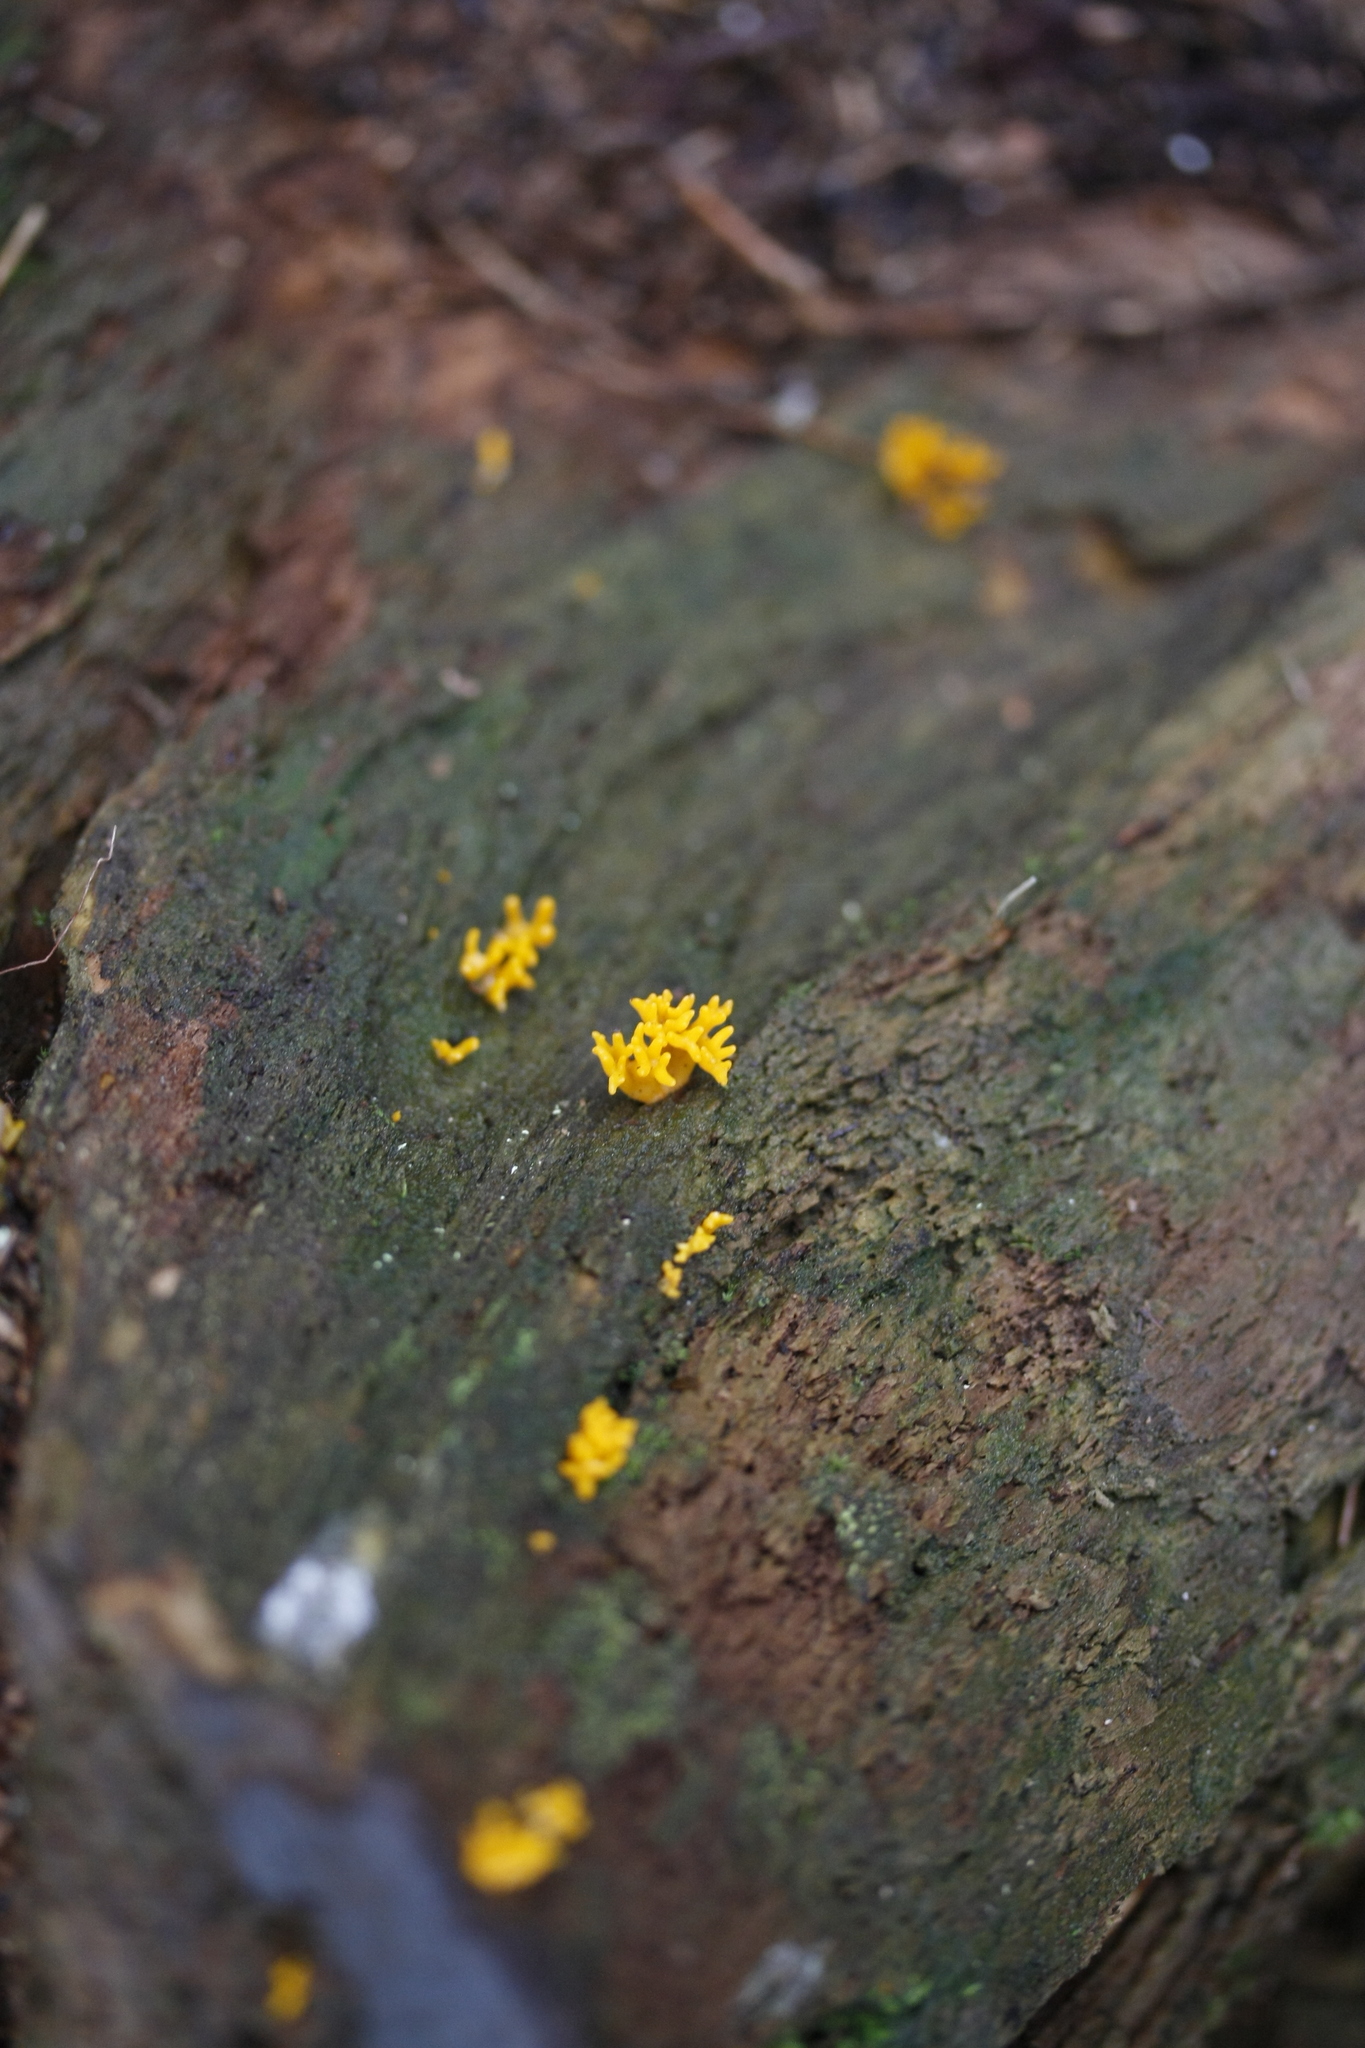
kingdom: Fungi
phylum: Basidiomycota
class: Dacrymycetes
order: Dacrymycetales
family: Dacrymycetaceae
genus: Calocera
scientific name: Calocera viscosa
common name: Yellow stagshorn
